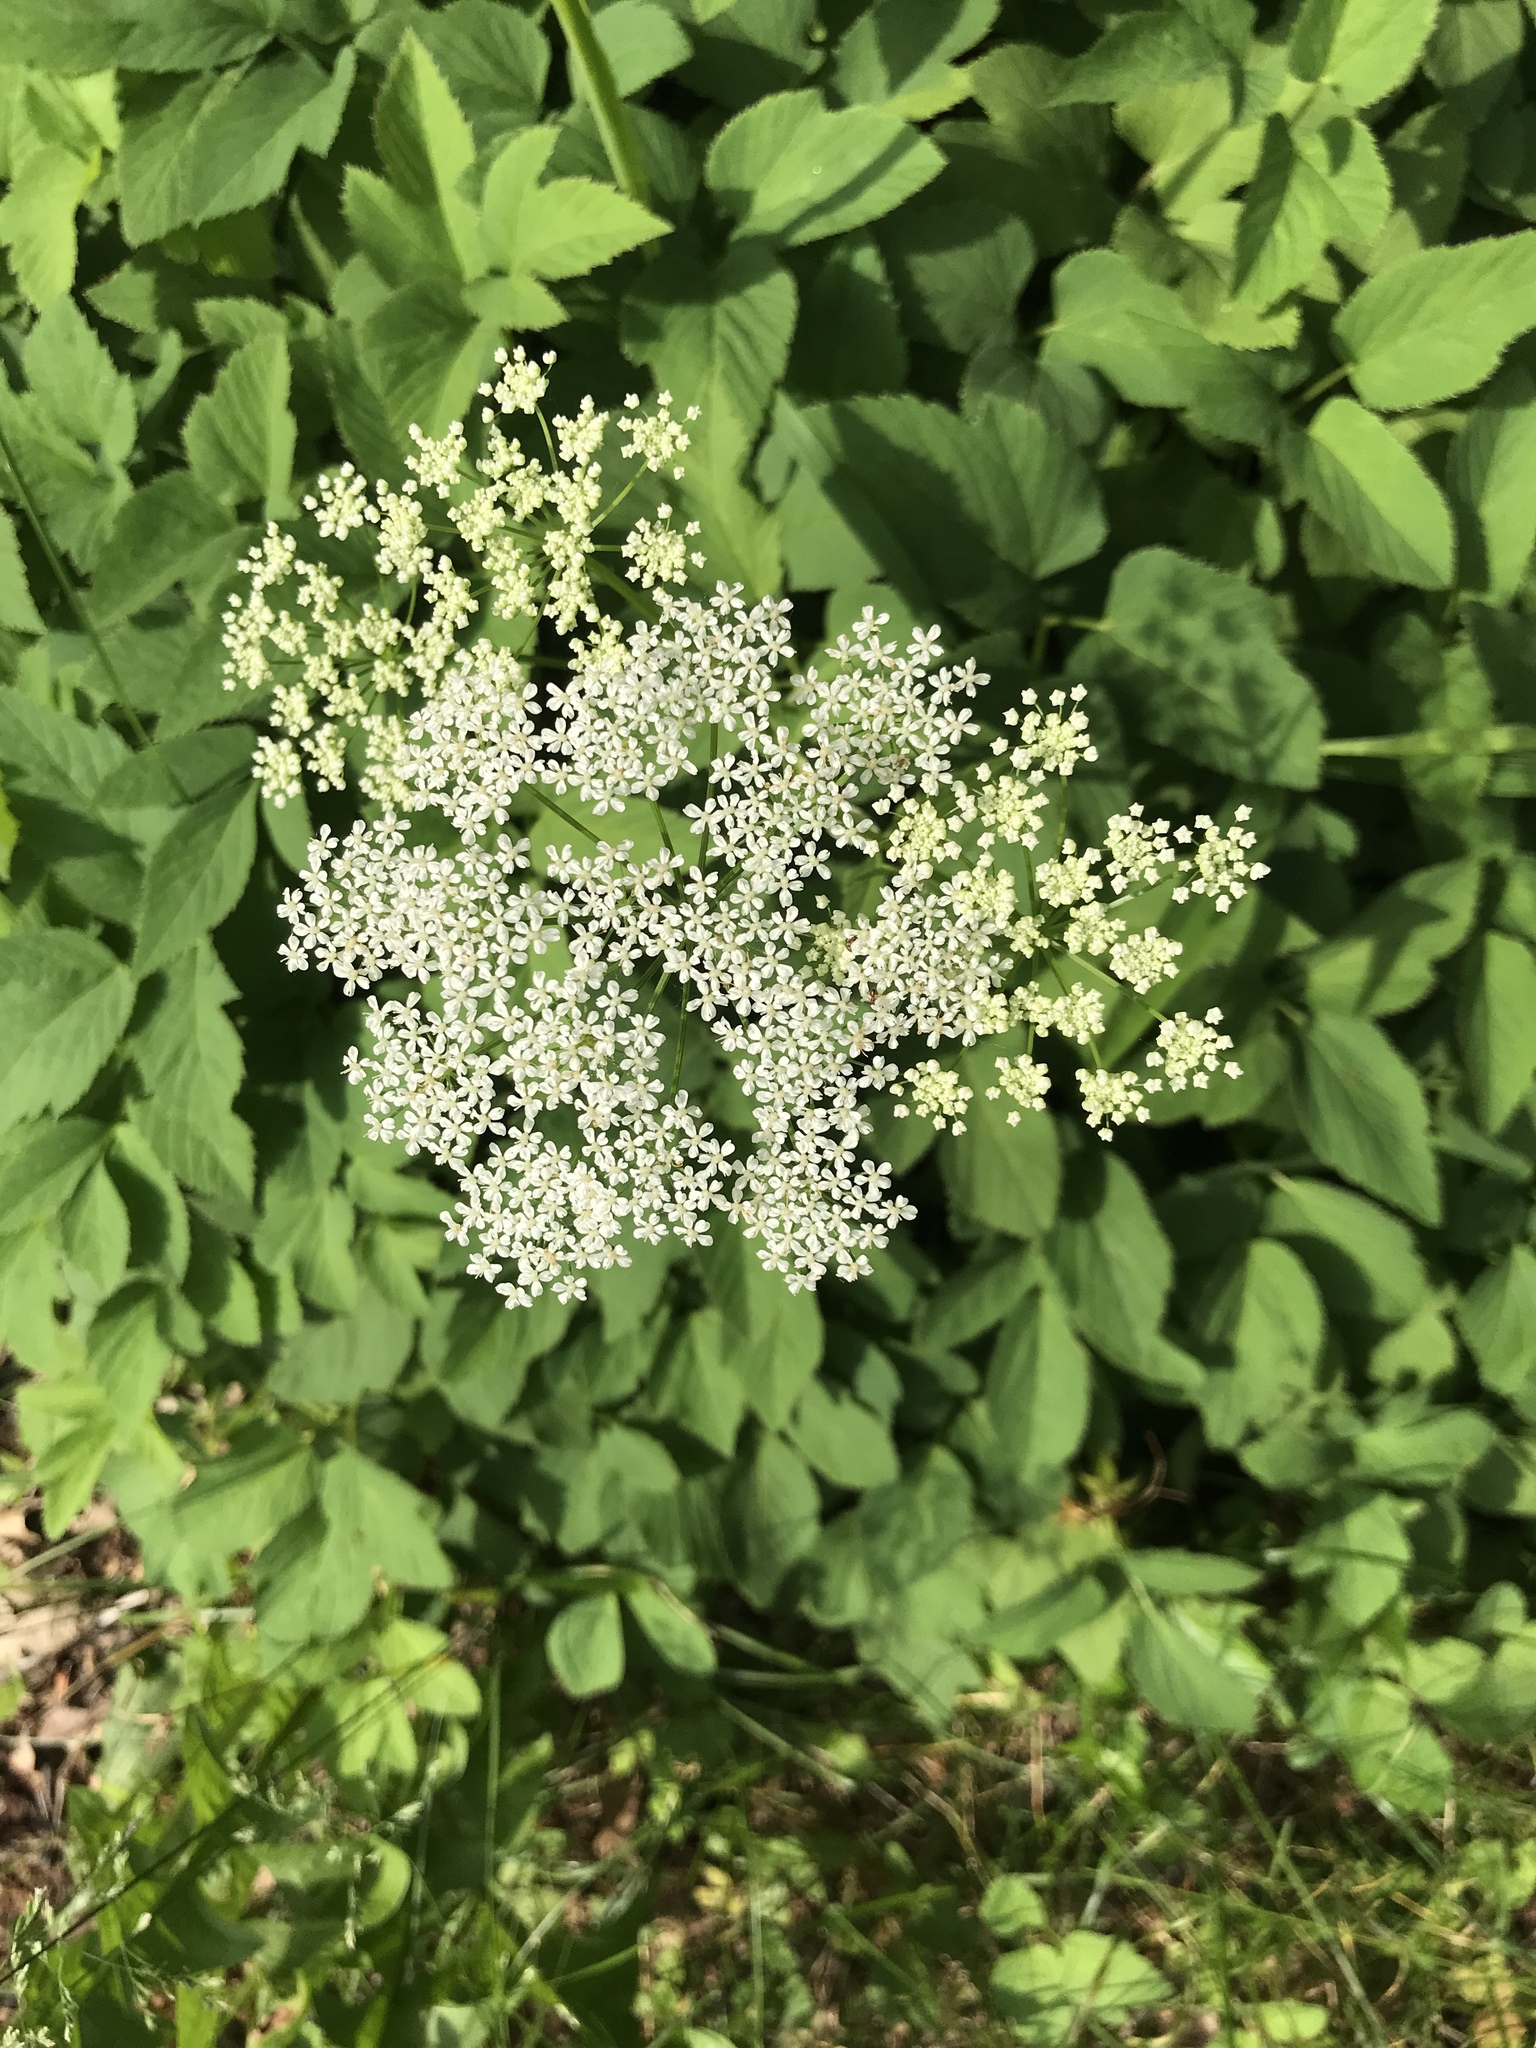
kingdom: Plantae
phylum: Tracheophyta
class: Magnoliopsida
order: Apiales
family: Apiaceae
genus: Aegopodium
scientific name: Aegopodium podagraria
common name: Ground-elder
